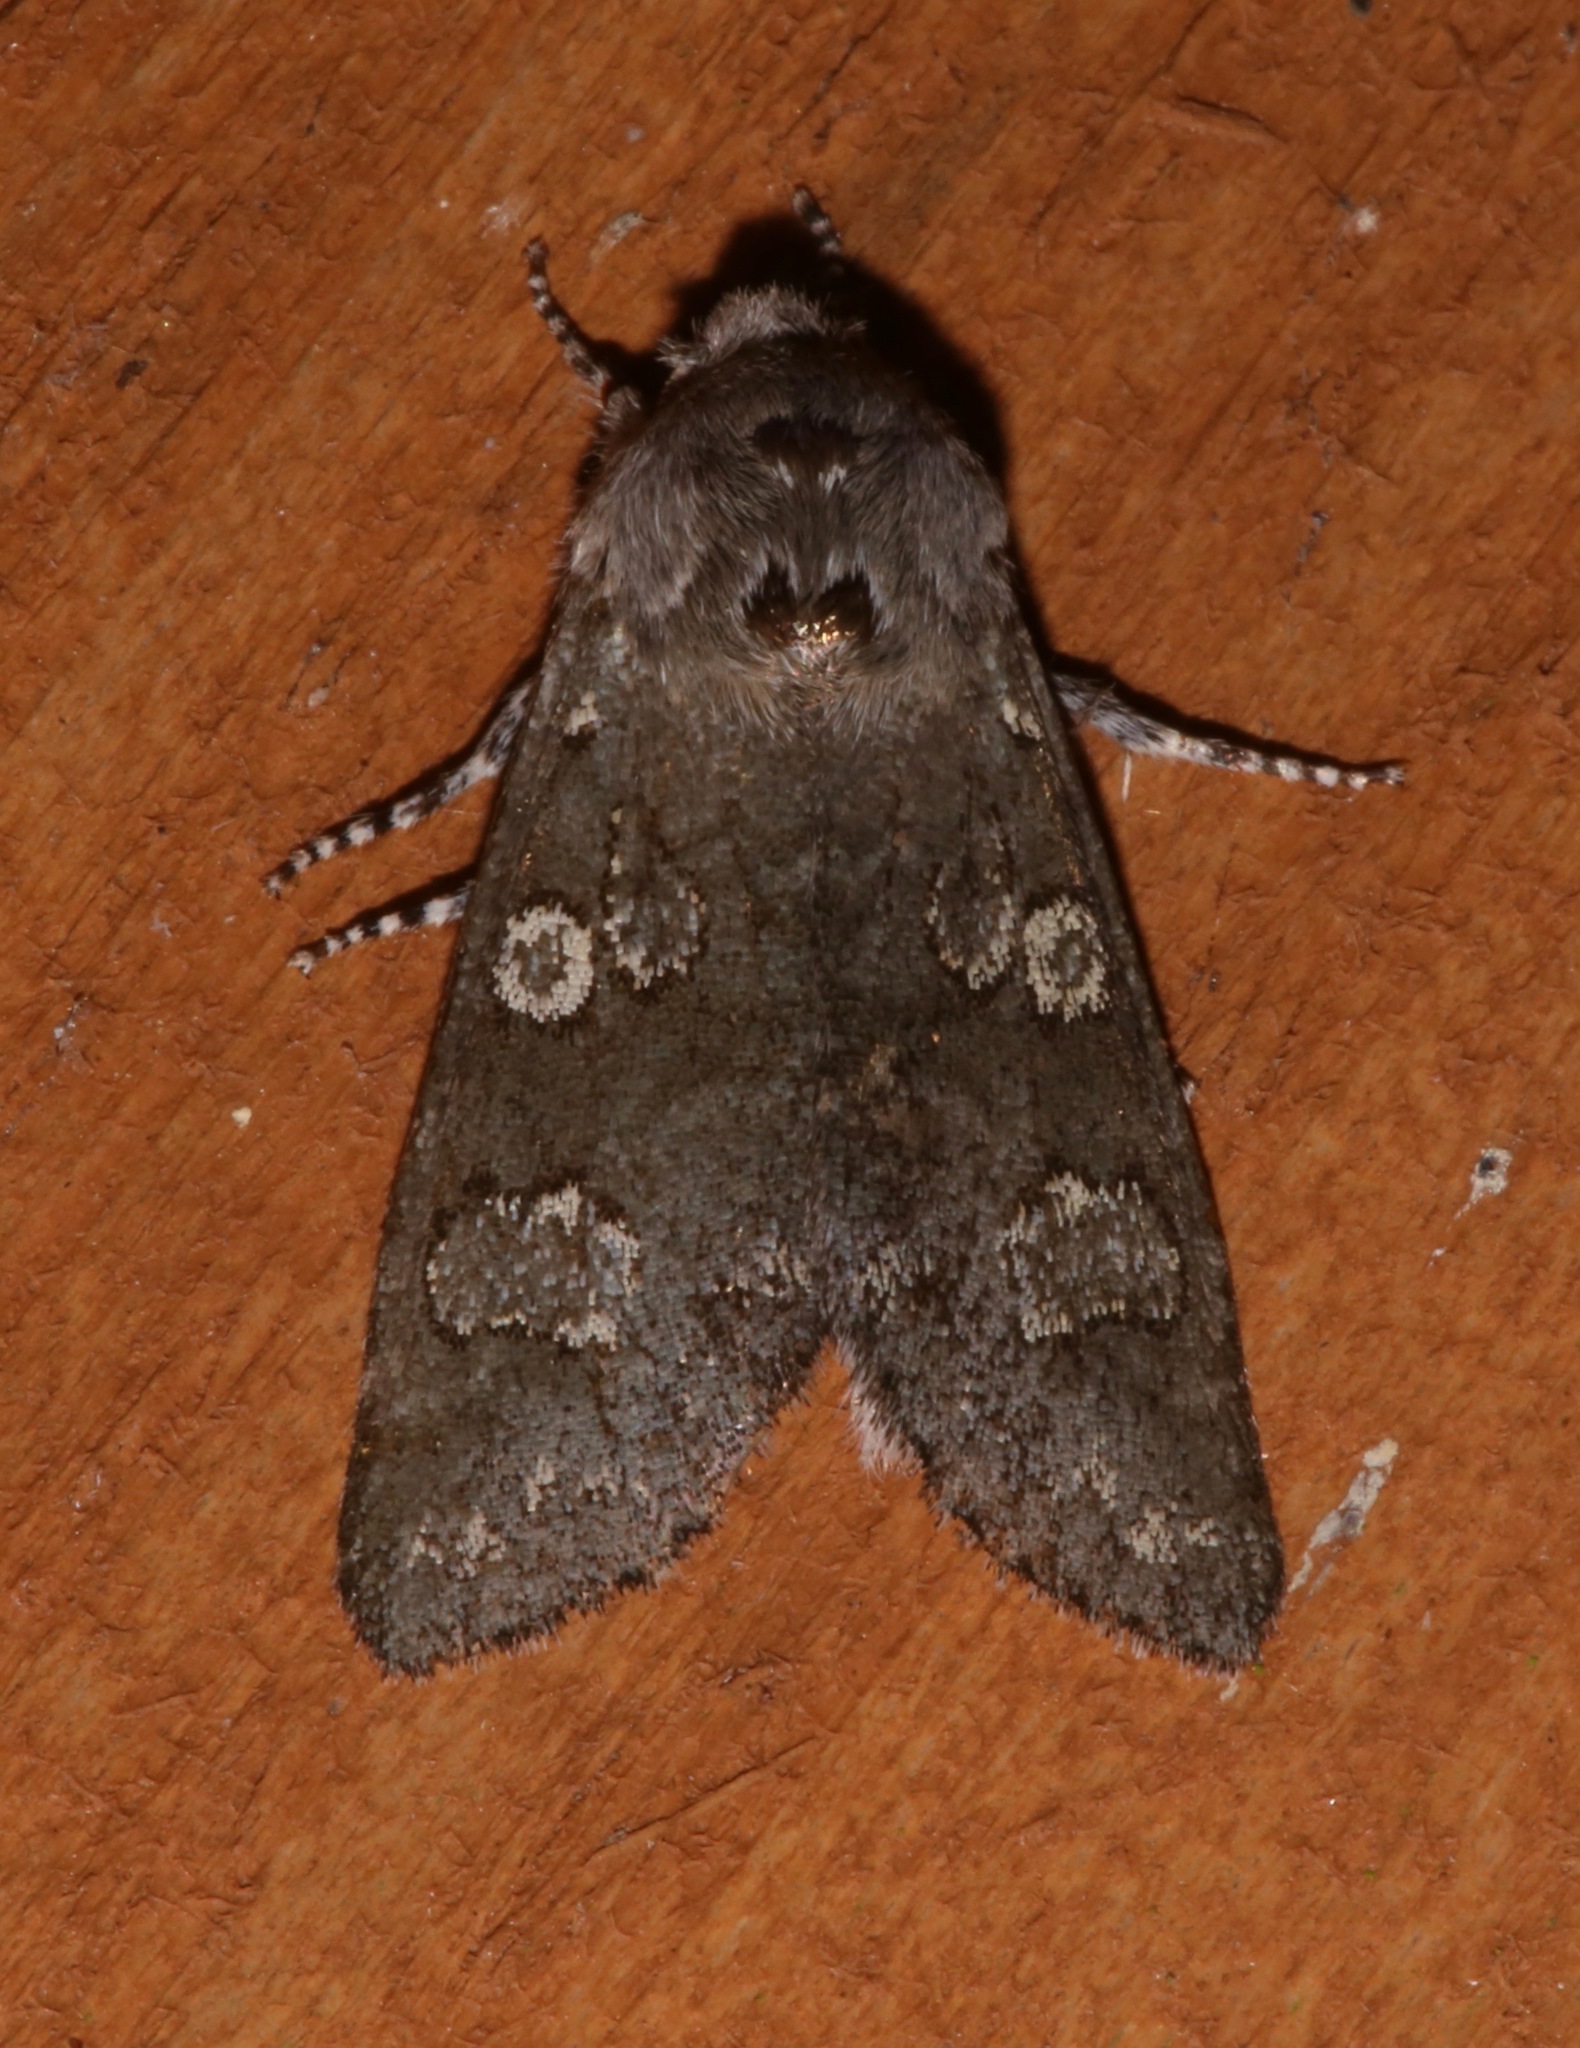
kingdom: Animalia
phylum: Arthropoda
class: Insecta
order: Lepidoptera
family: Noctuidae
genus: Psaphida
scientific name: Psaphida rolandi
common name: Roland's sallow
